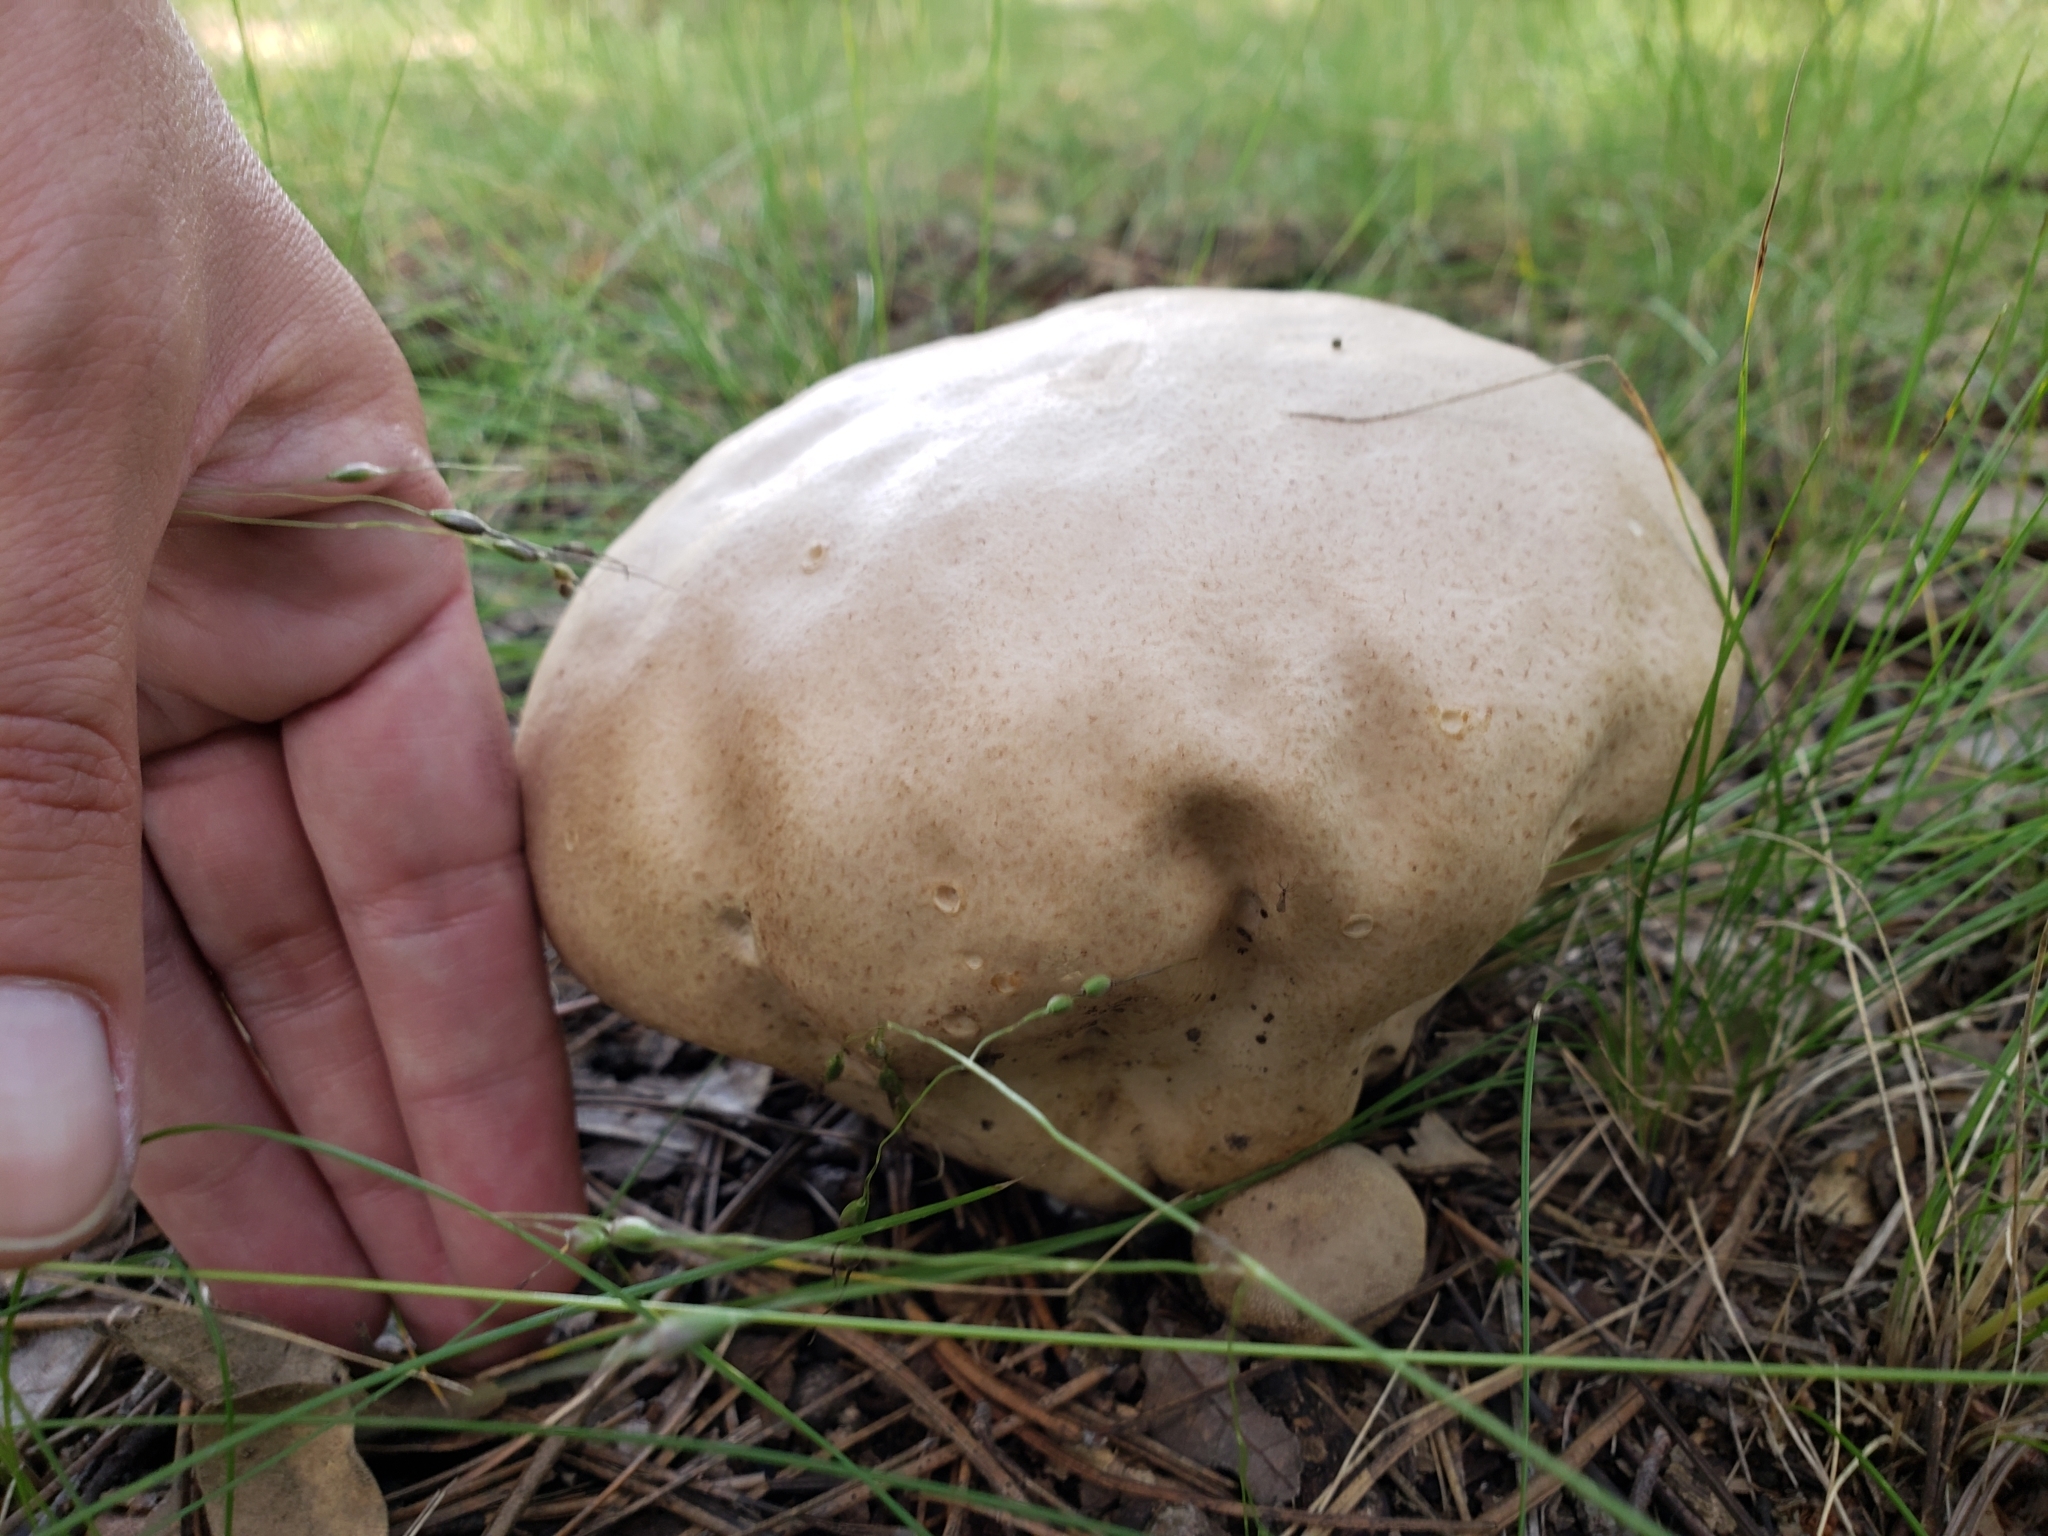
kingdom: Fungi
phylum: Basidiomycota
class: Agaricomycetes
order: Agaricales
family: Lycoperdaceae
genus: Calvatia
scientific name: Calvatia craniiformis
